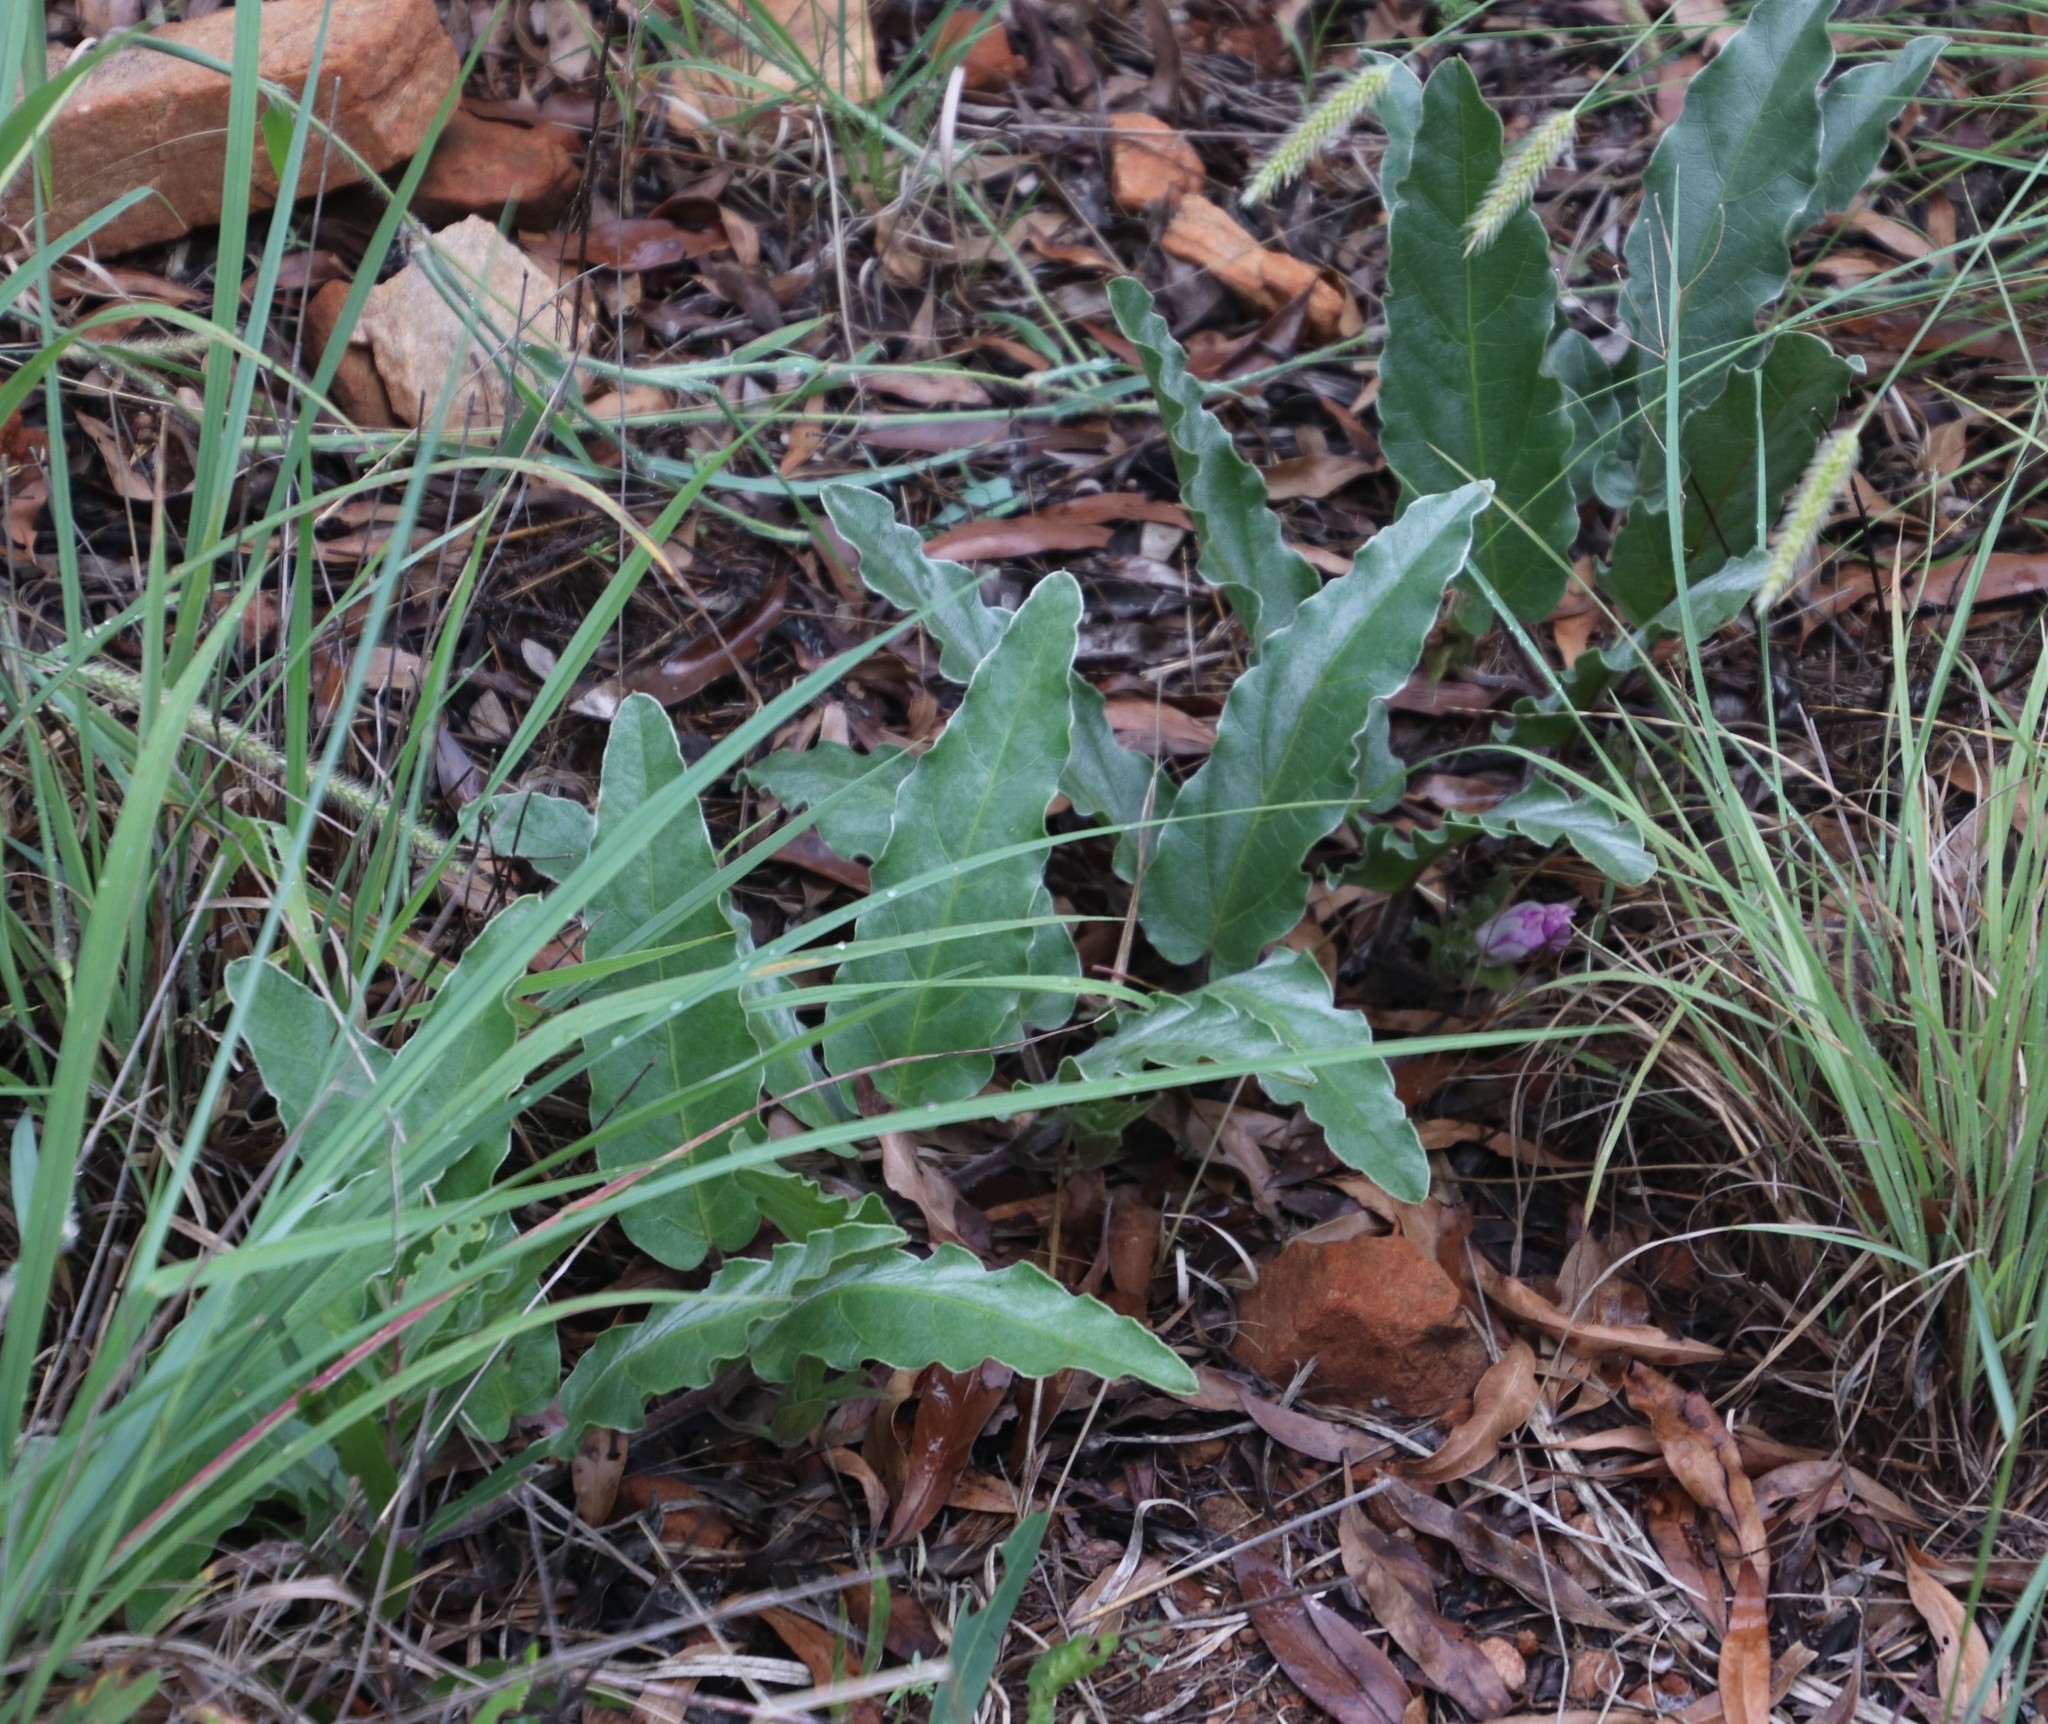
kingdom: Plantae
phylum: Tracheophyta
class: Magnoliopsida
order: Solanales
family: Convolvulaceae
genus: Ipomoea
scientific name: Ipomoea ommanneyi
